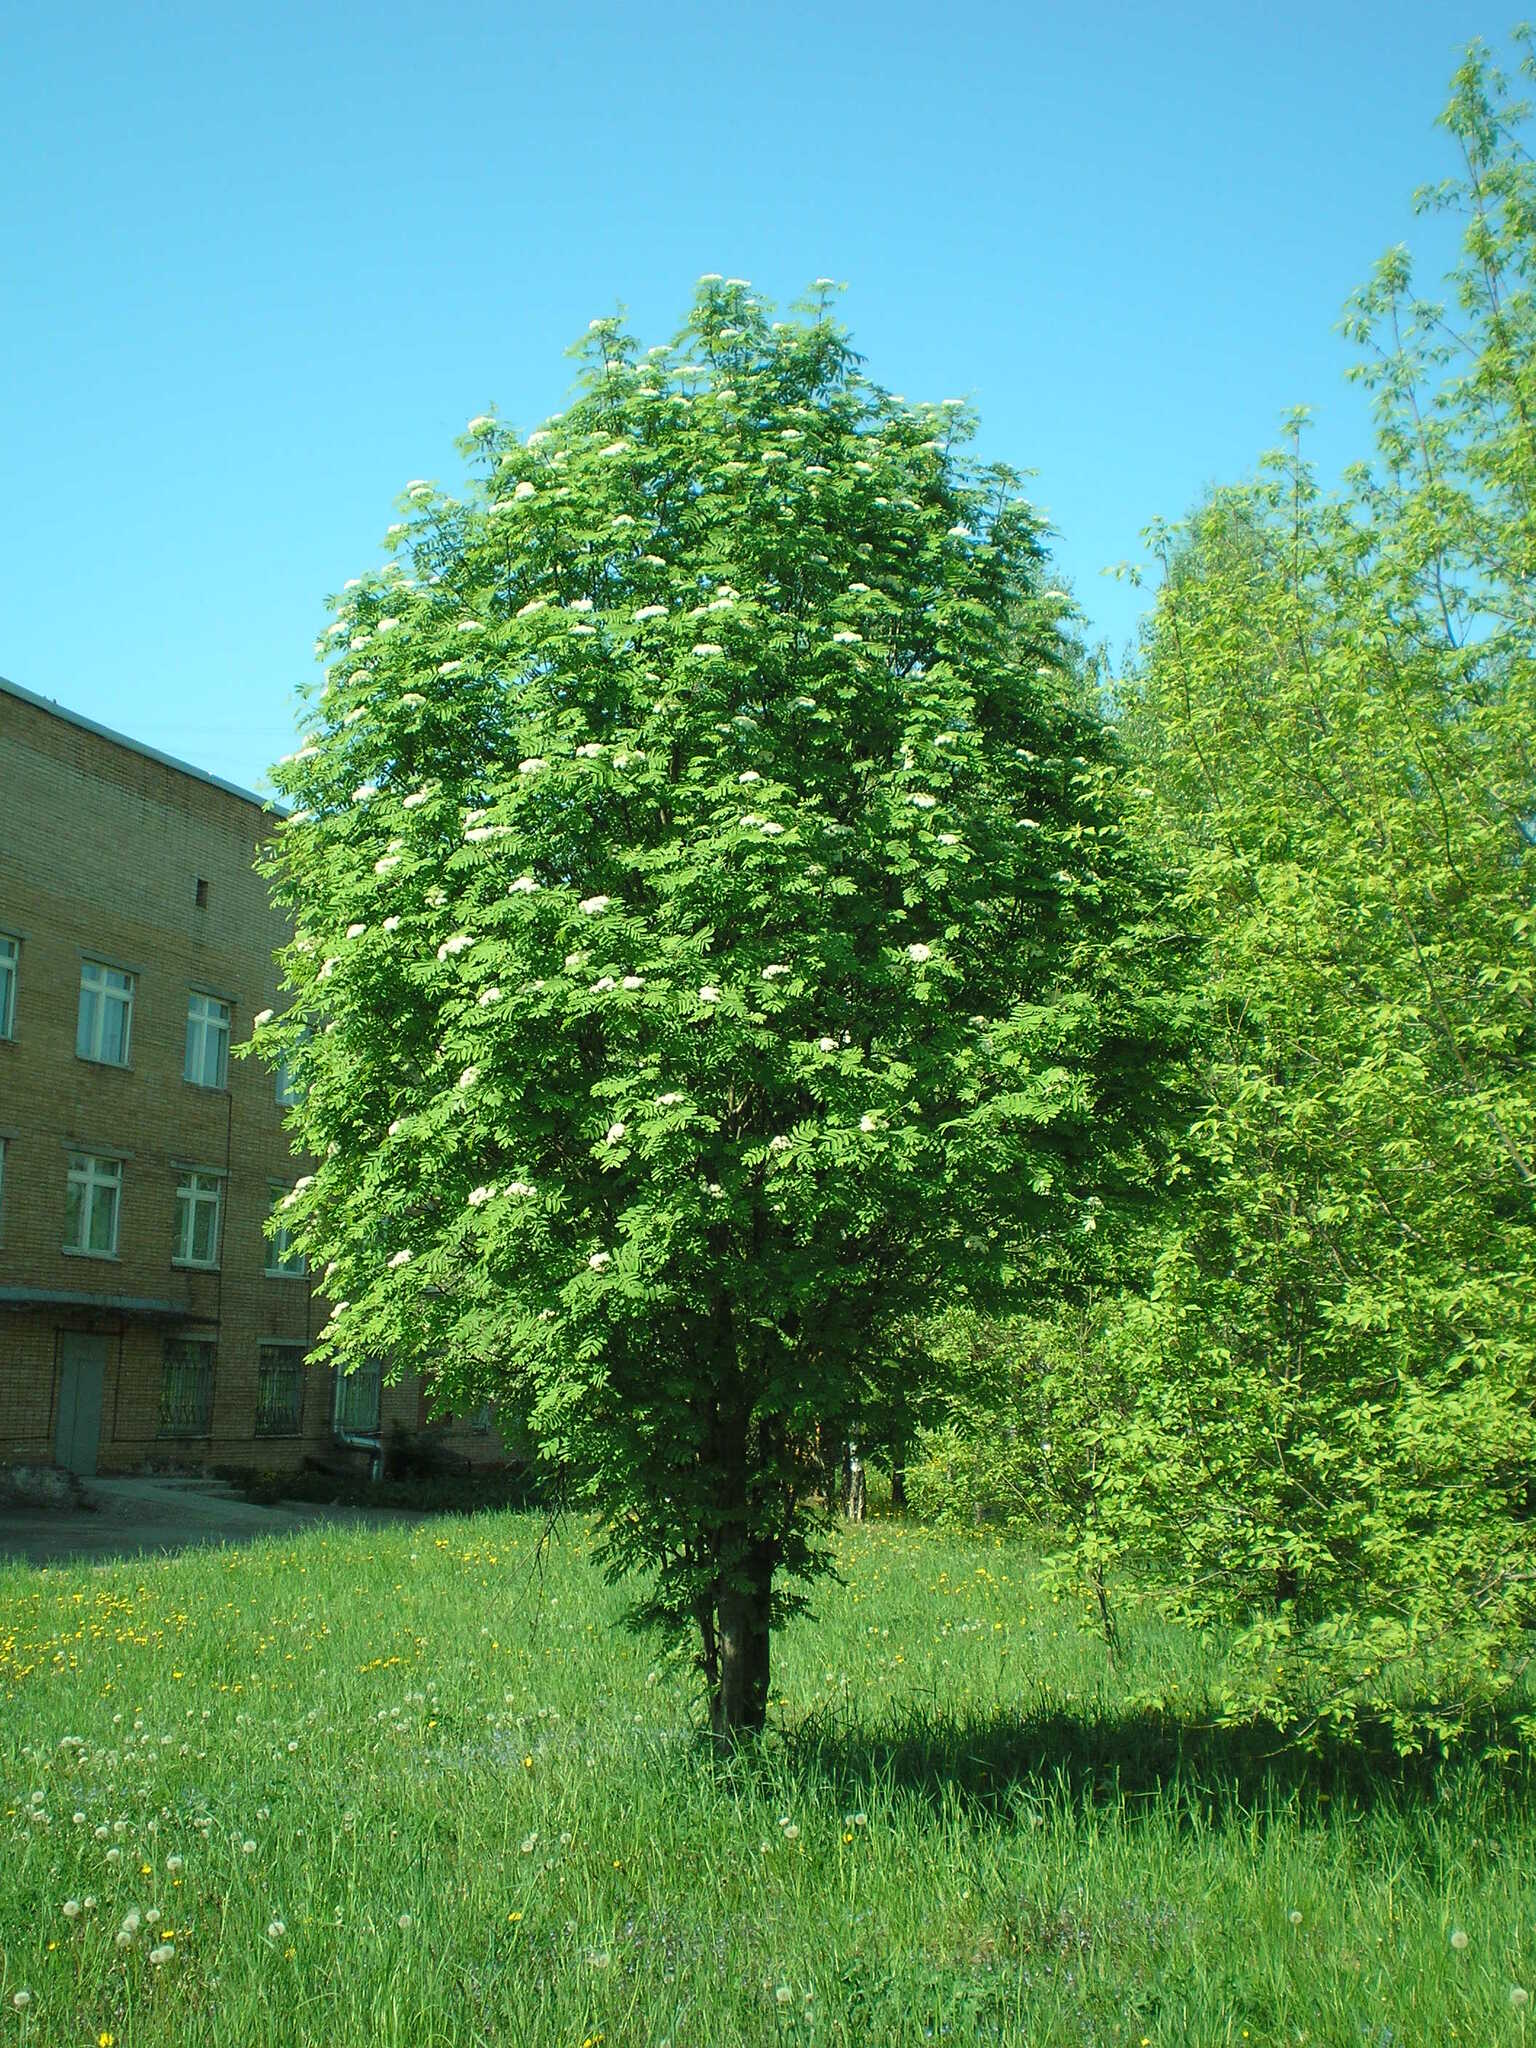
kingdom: Plantae
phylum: Tracheophyta
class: Magnoliopsida
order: Rosales
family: Rosaceae
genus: Sorbus
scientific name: Sorbus aucuparia
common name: Rowan
